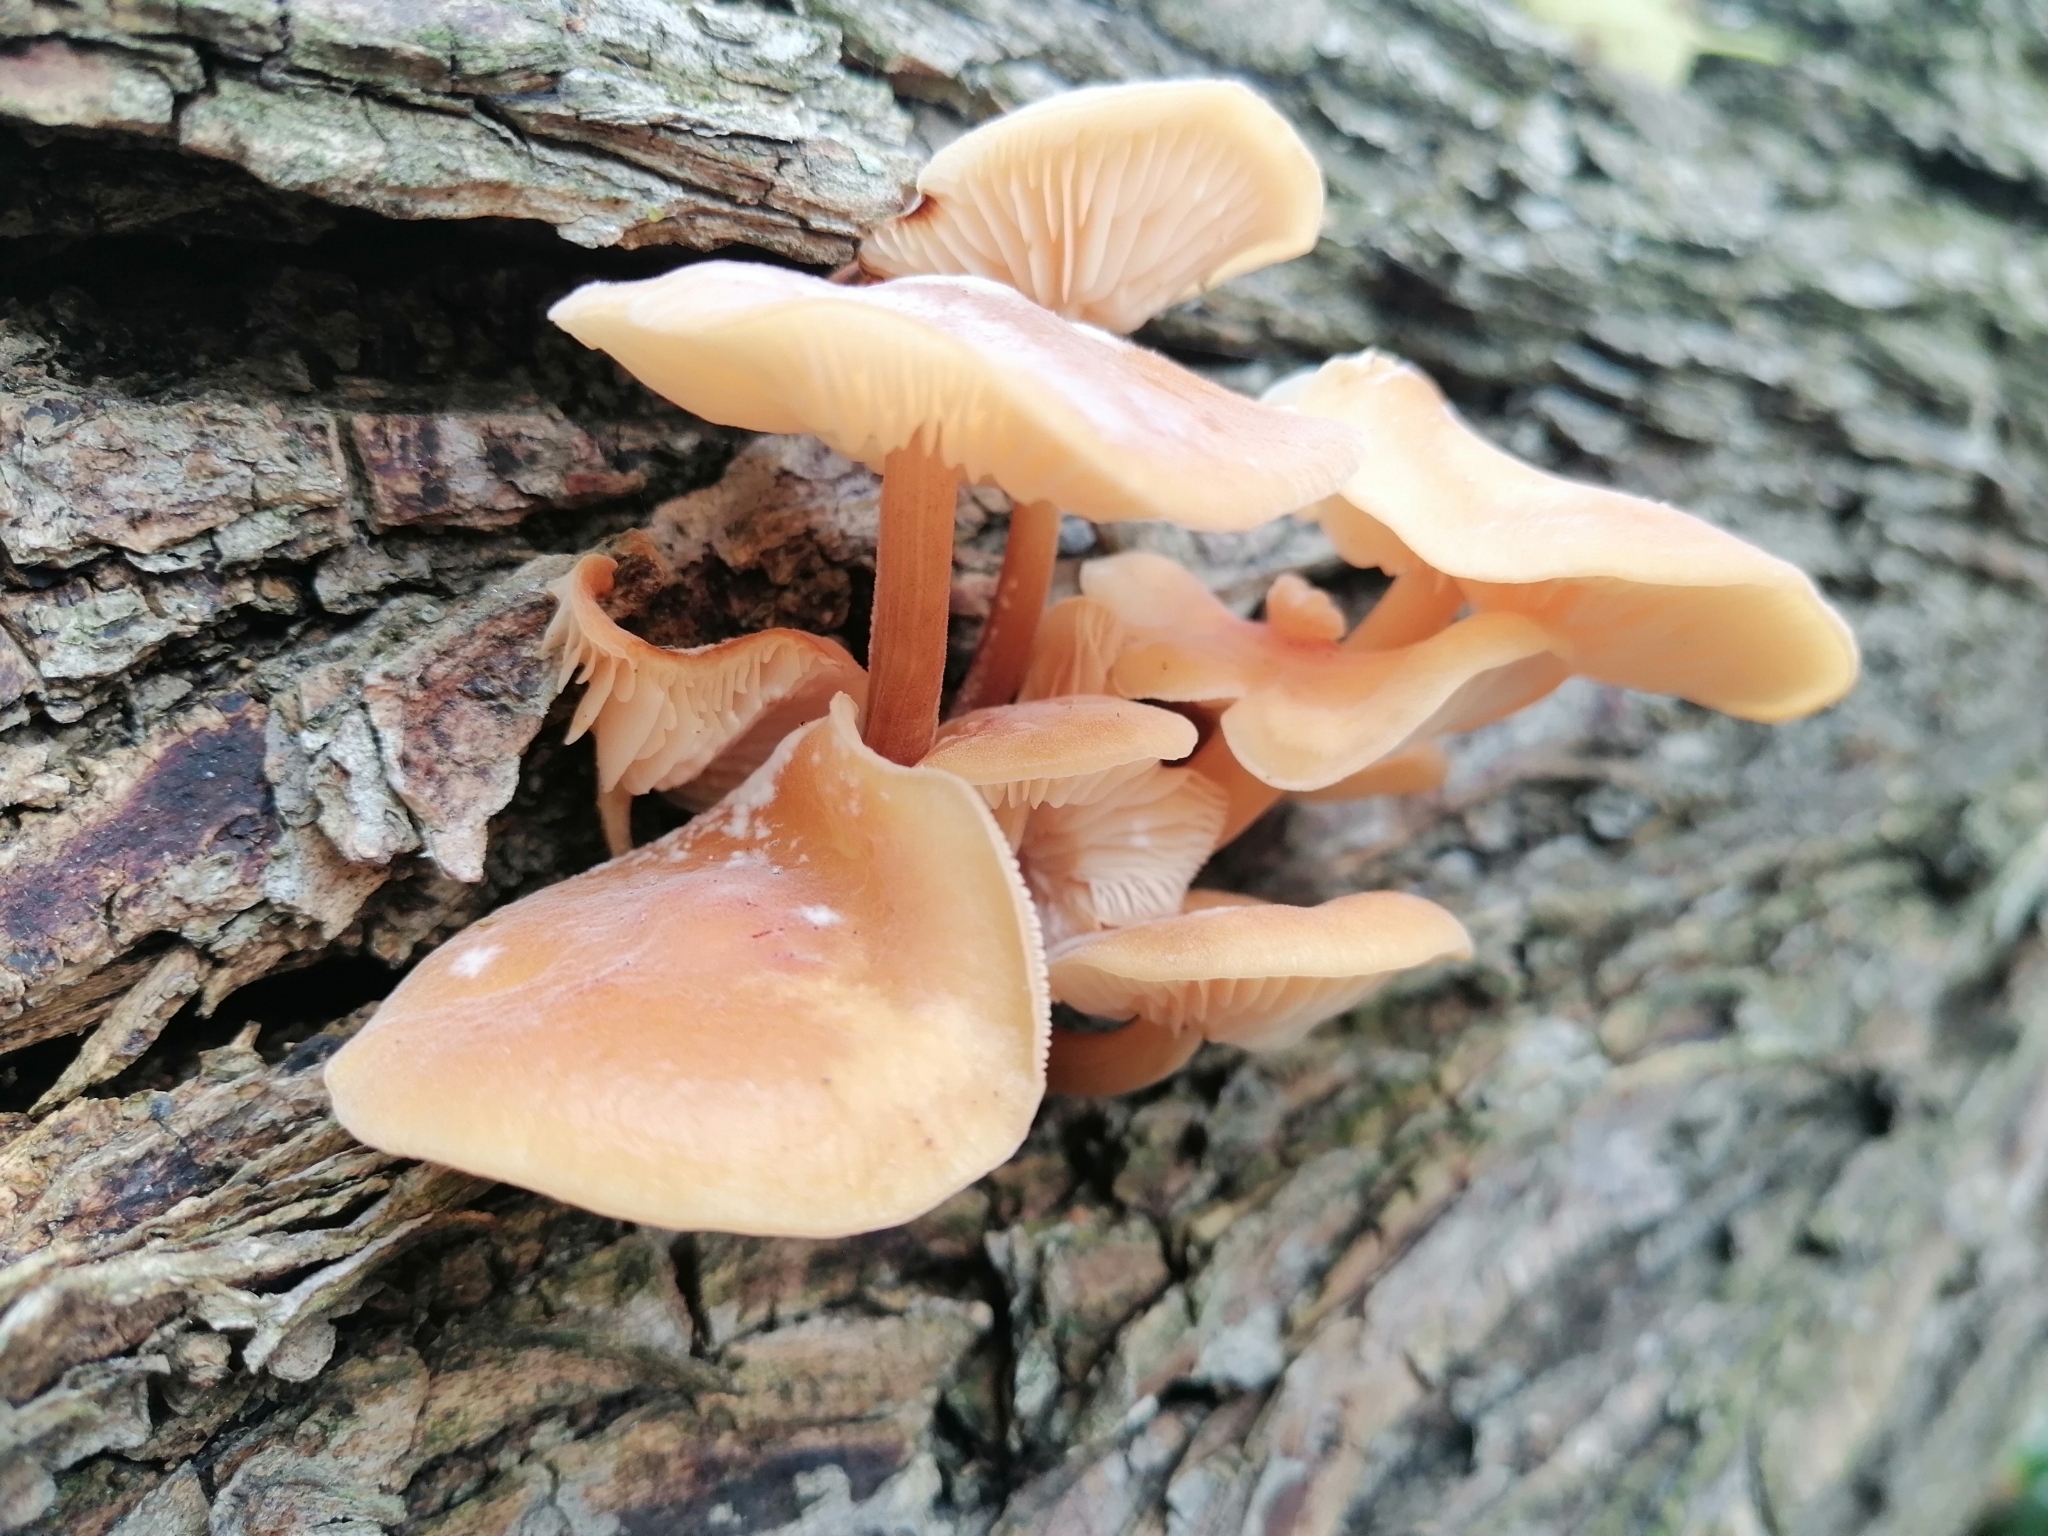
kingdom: Fungi
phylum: Basidiomycota
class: Agaricomycetes
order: Agaricales
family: Physalacriaceae
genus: Flammulina
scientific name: Flammulina
